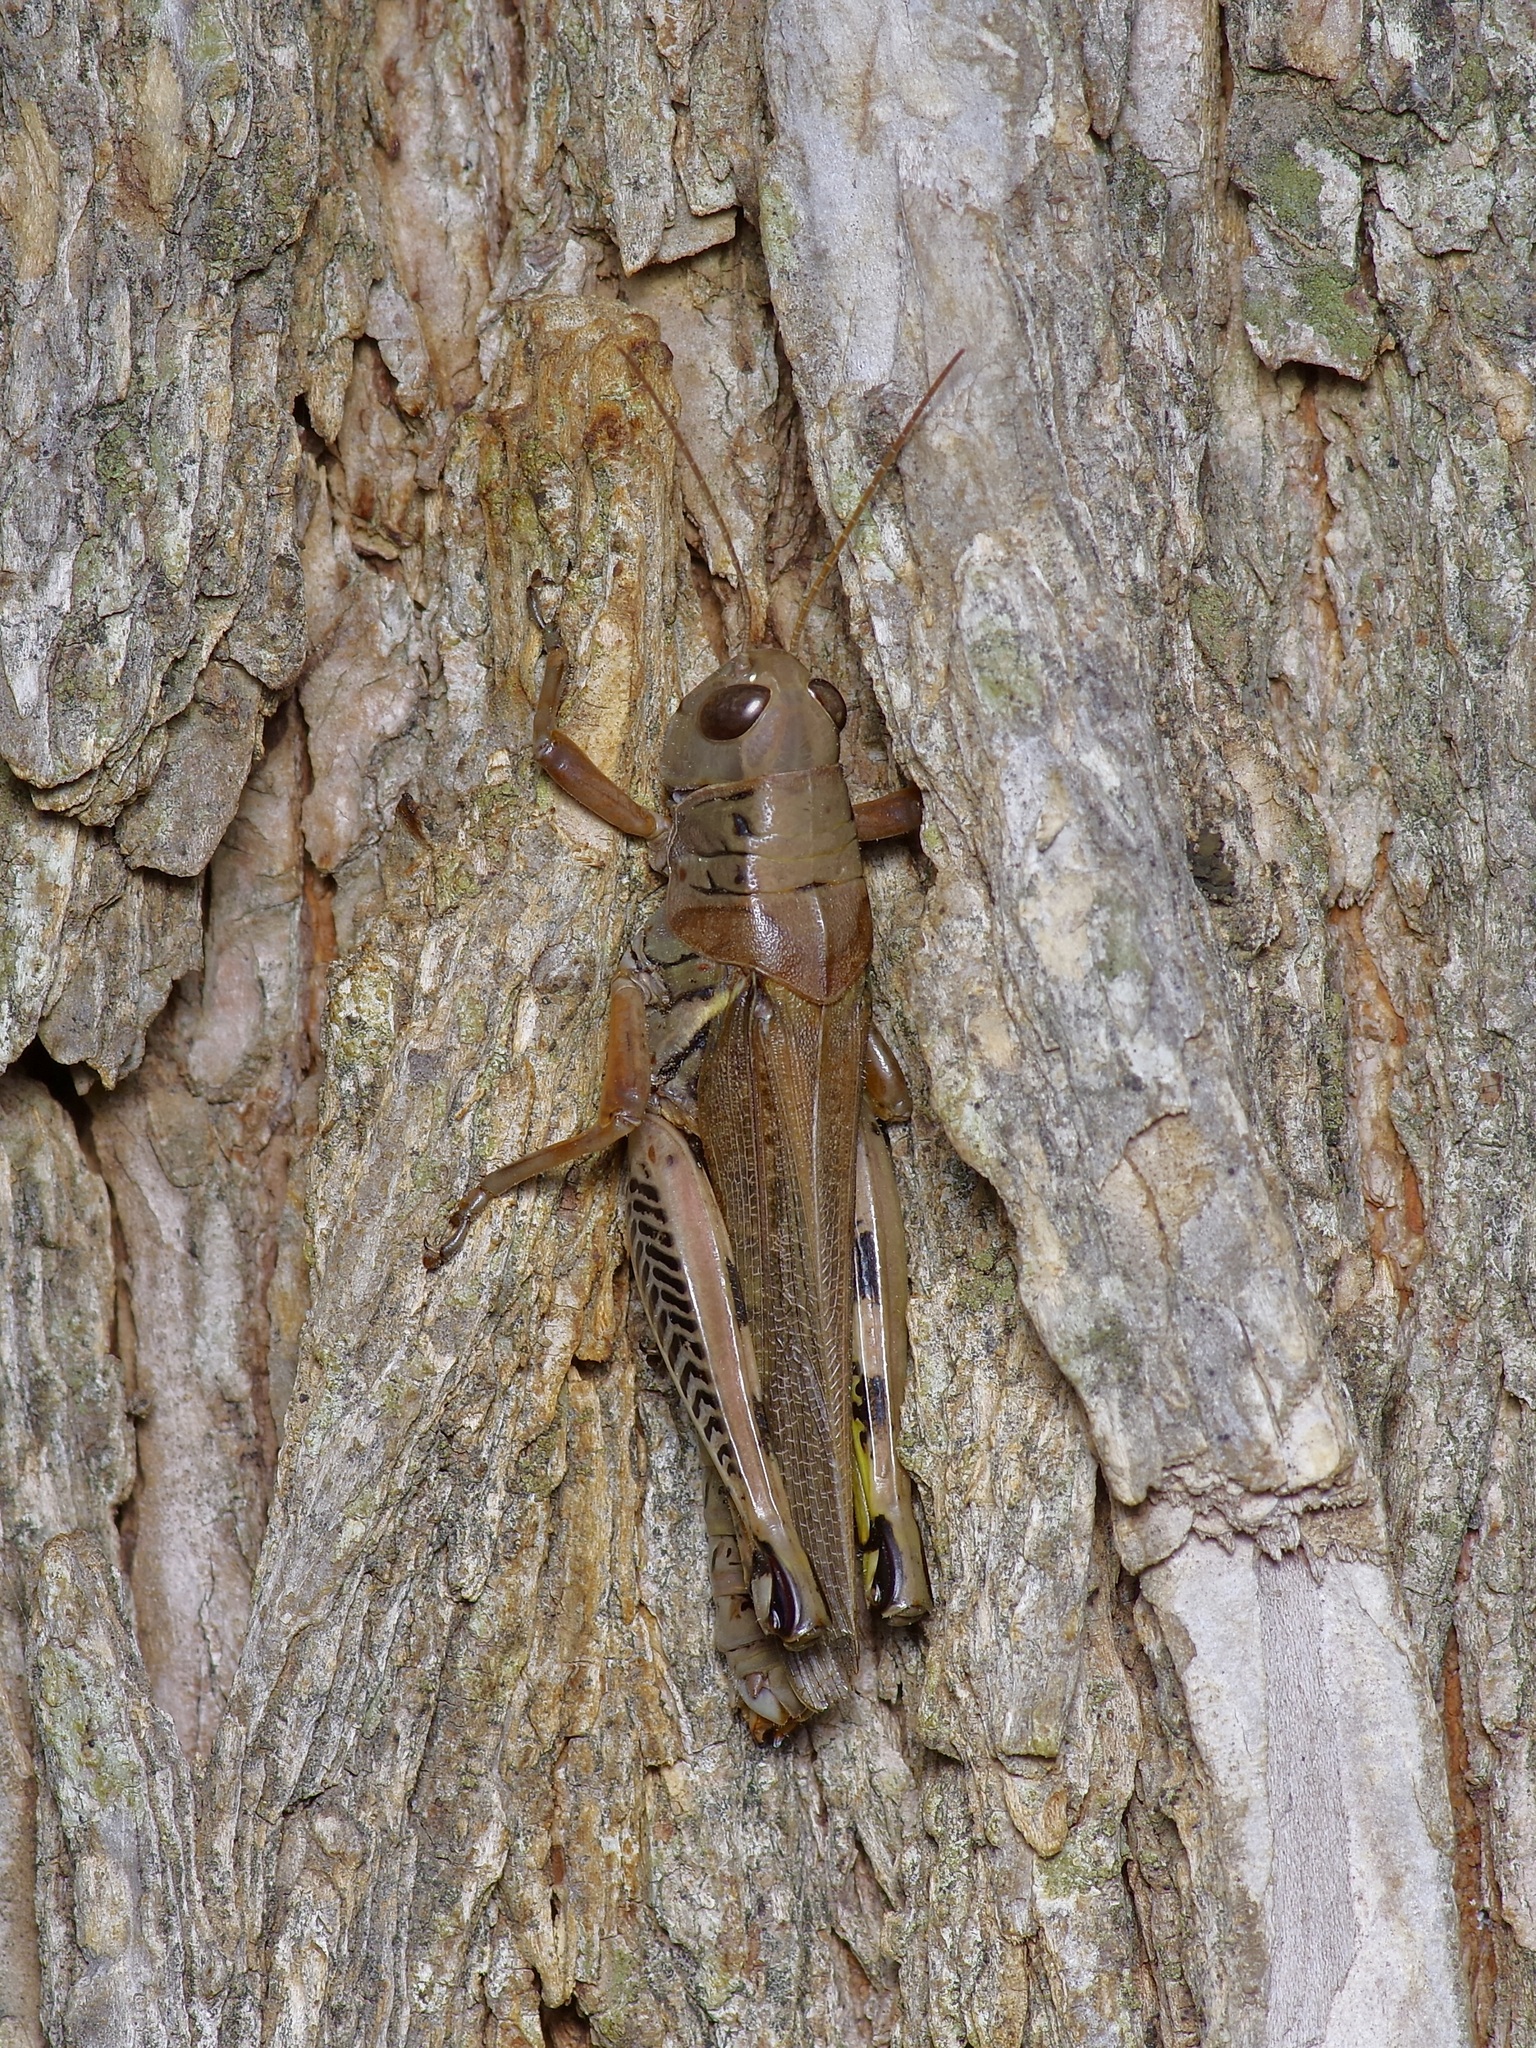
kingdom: Animalia
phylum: Arthropoda
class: Insecta
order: Orthoptera
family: Acrididae
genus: Melanoplus
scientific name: Melanoplus differentialis
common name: Differential grasshopper
